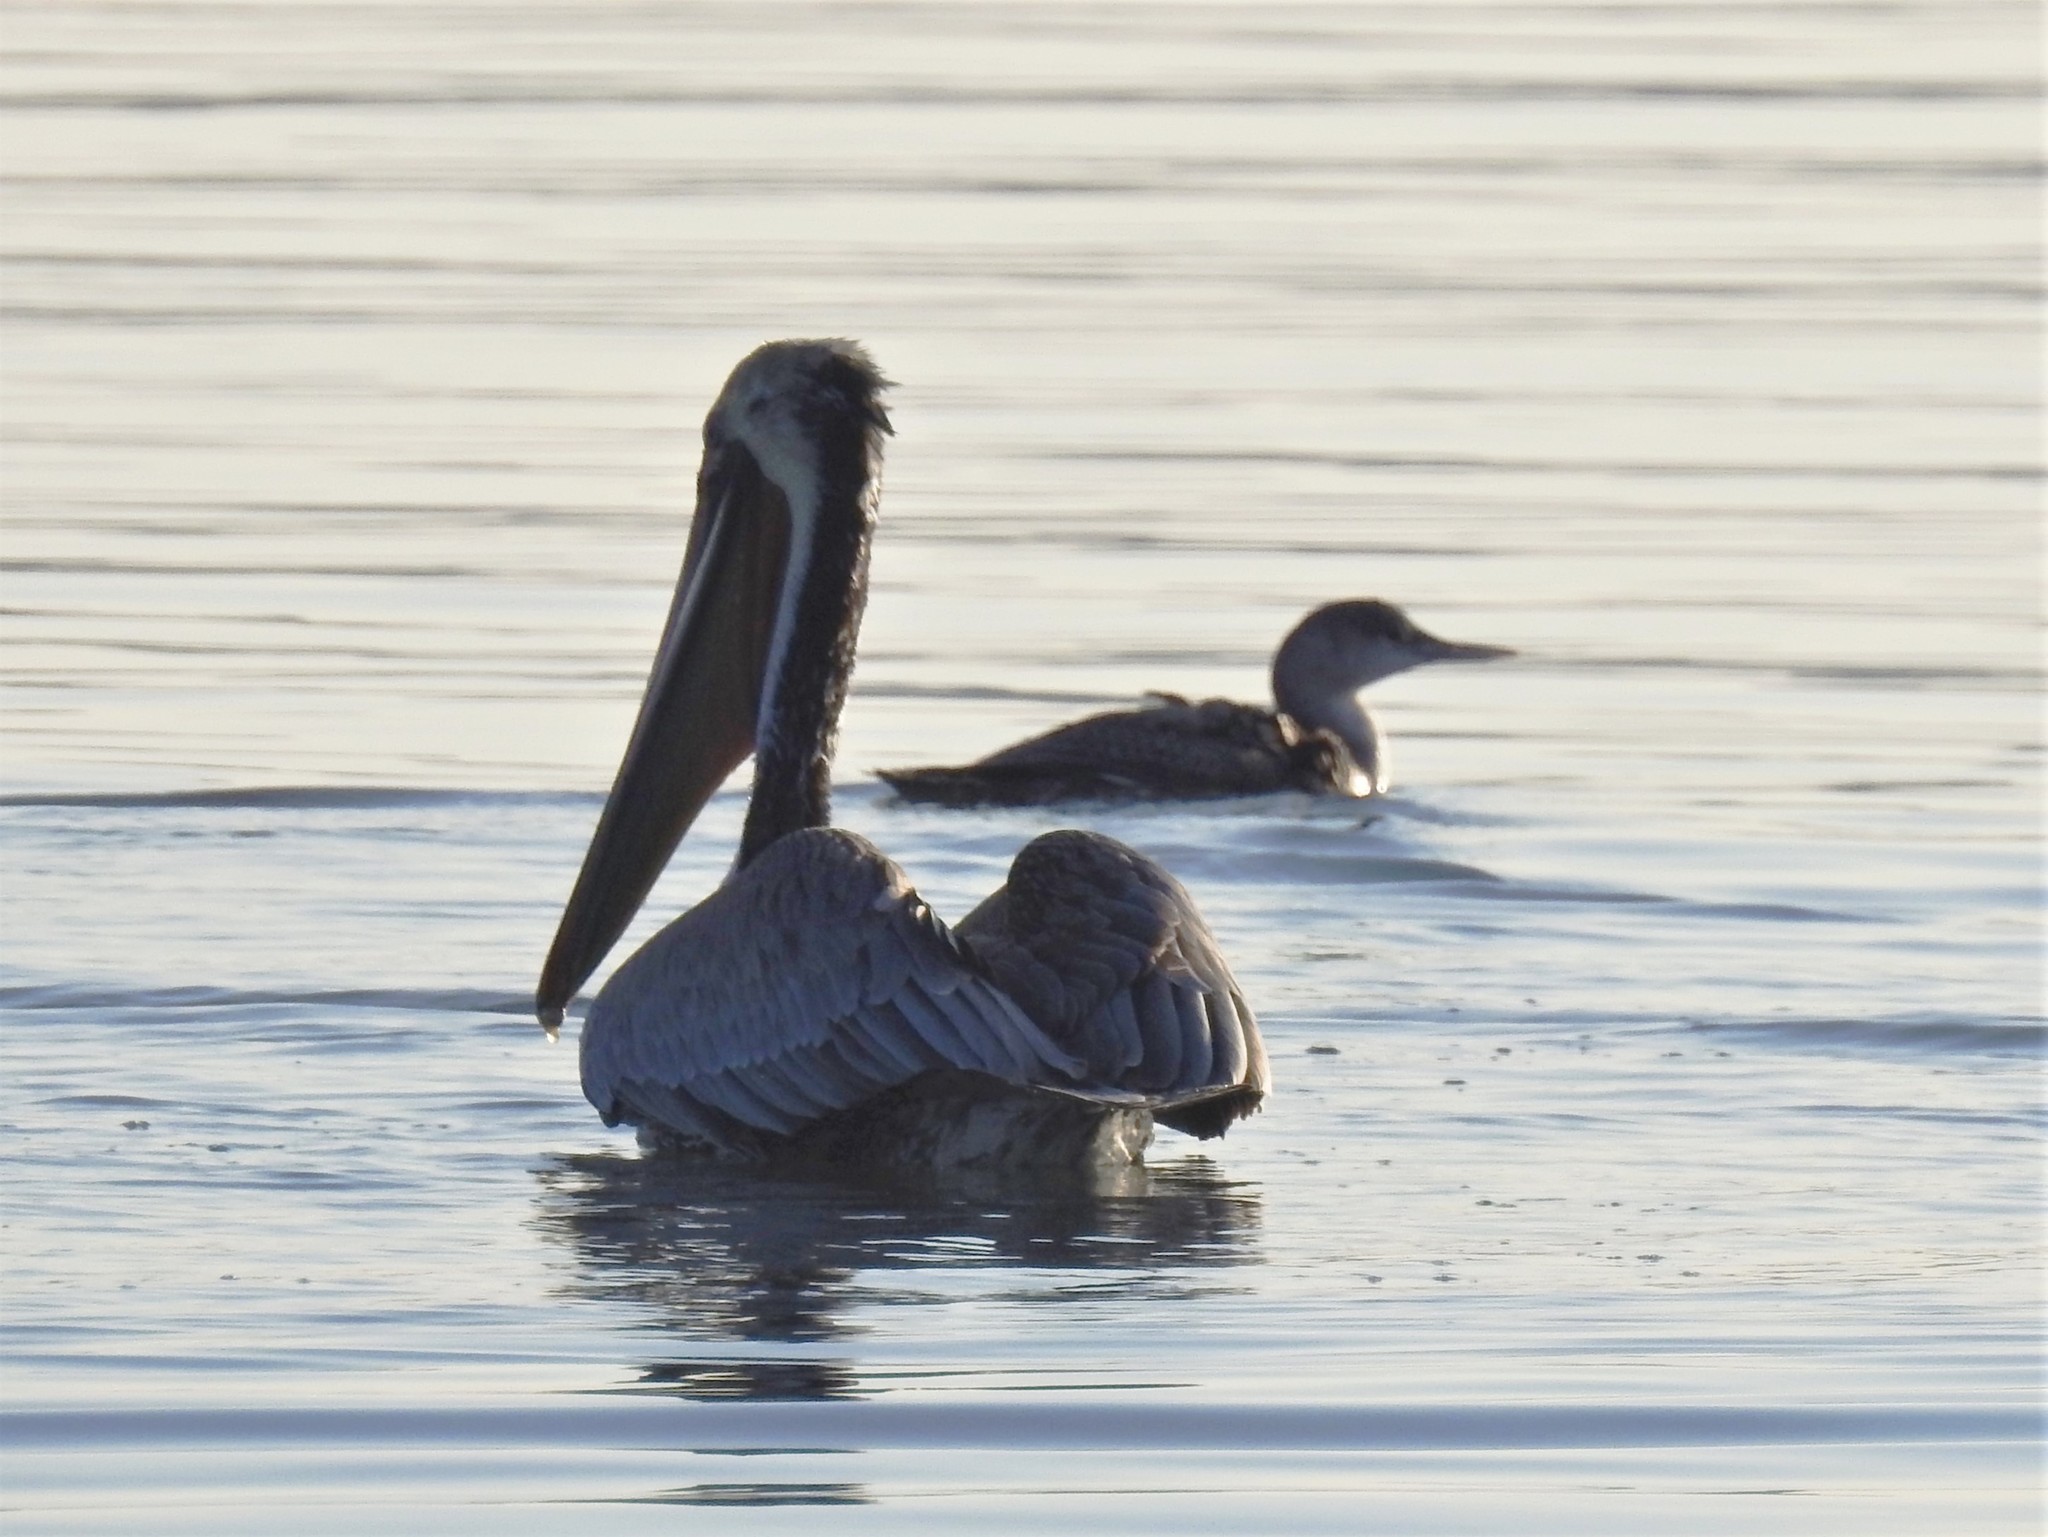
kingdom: Animalia
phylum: Chordata
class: Aves
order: Gaviiformes
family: Gaviidae
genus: Gavia
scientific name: Gavia
